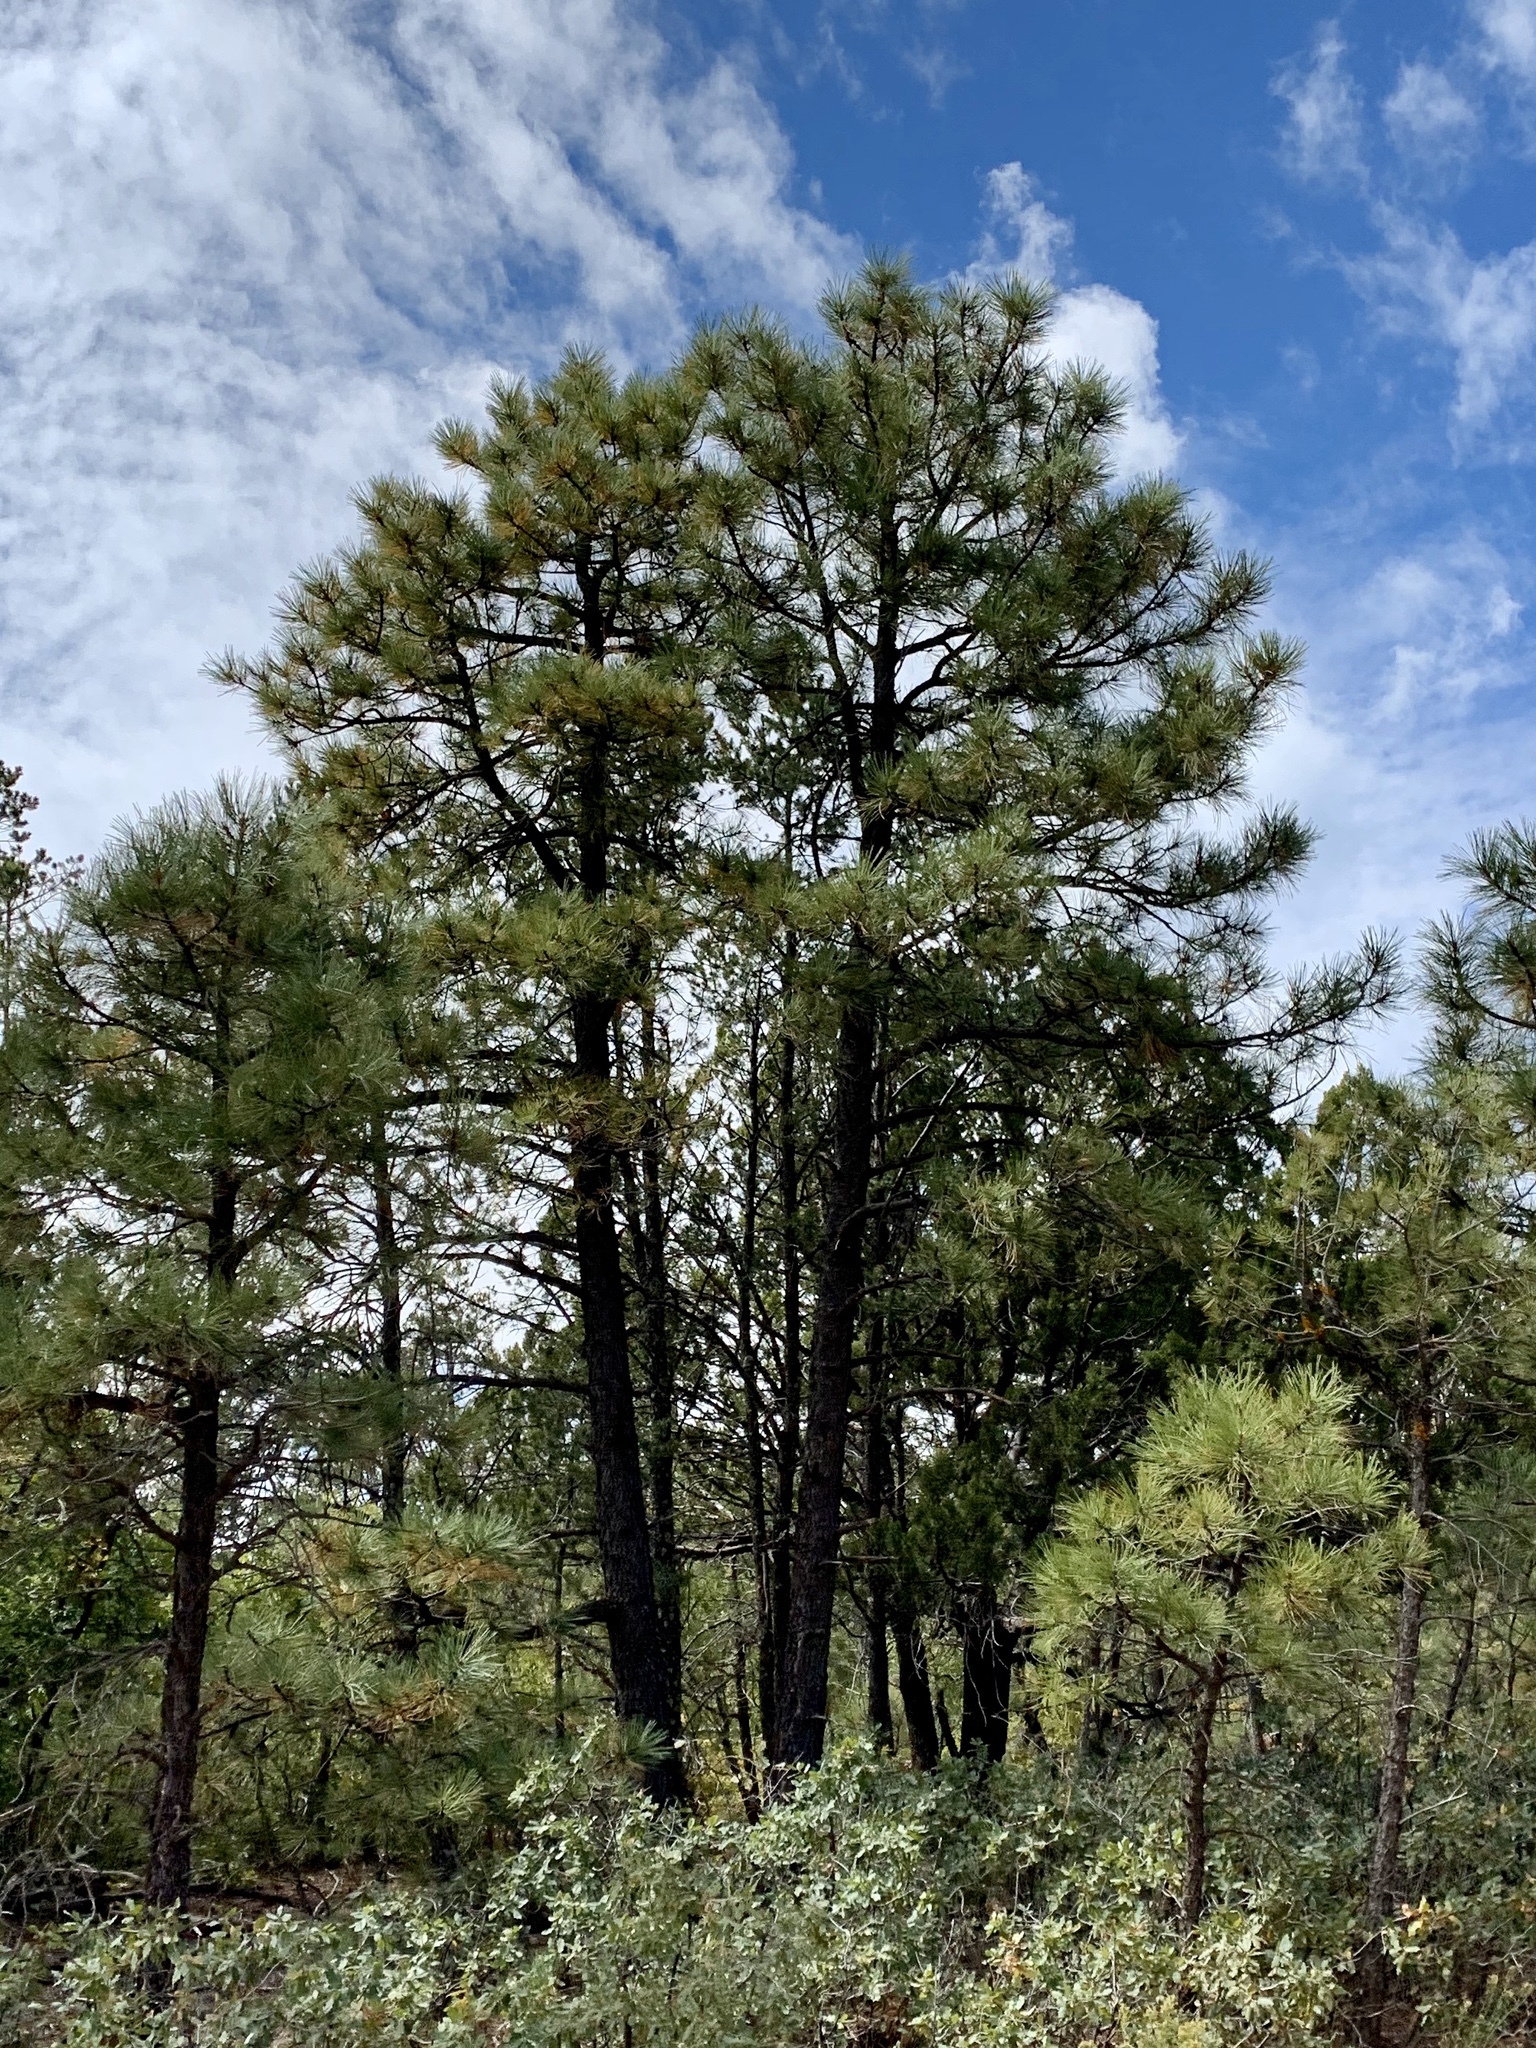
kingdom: Plantae
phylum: Tracheophyta
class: Pinopsida
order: Pinales
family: Pinaceae
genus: Pinus
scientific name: Pinus ponderosa
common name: Western yellow-pine
